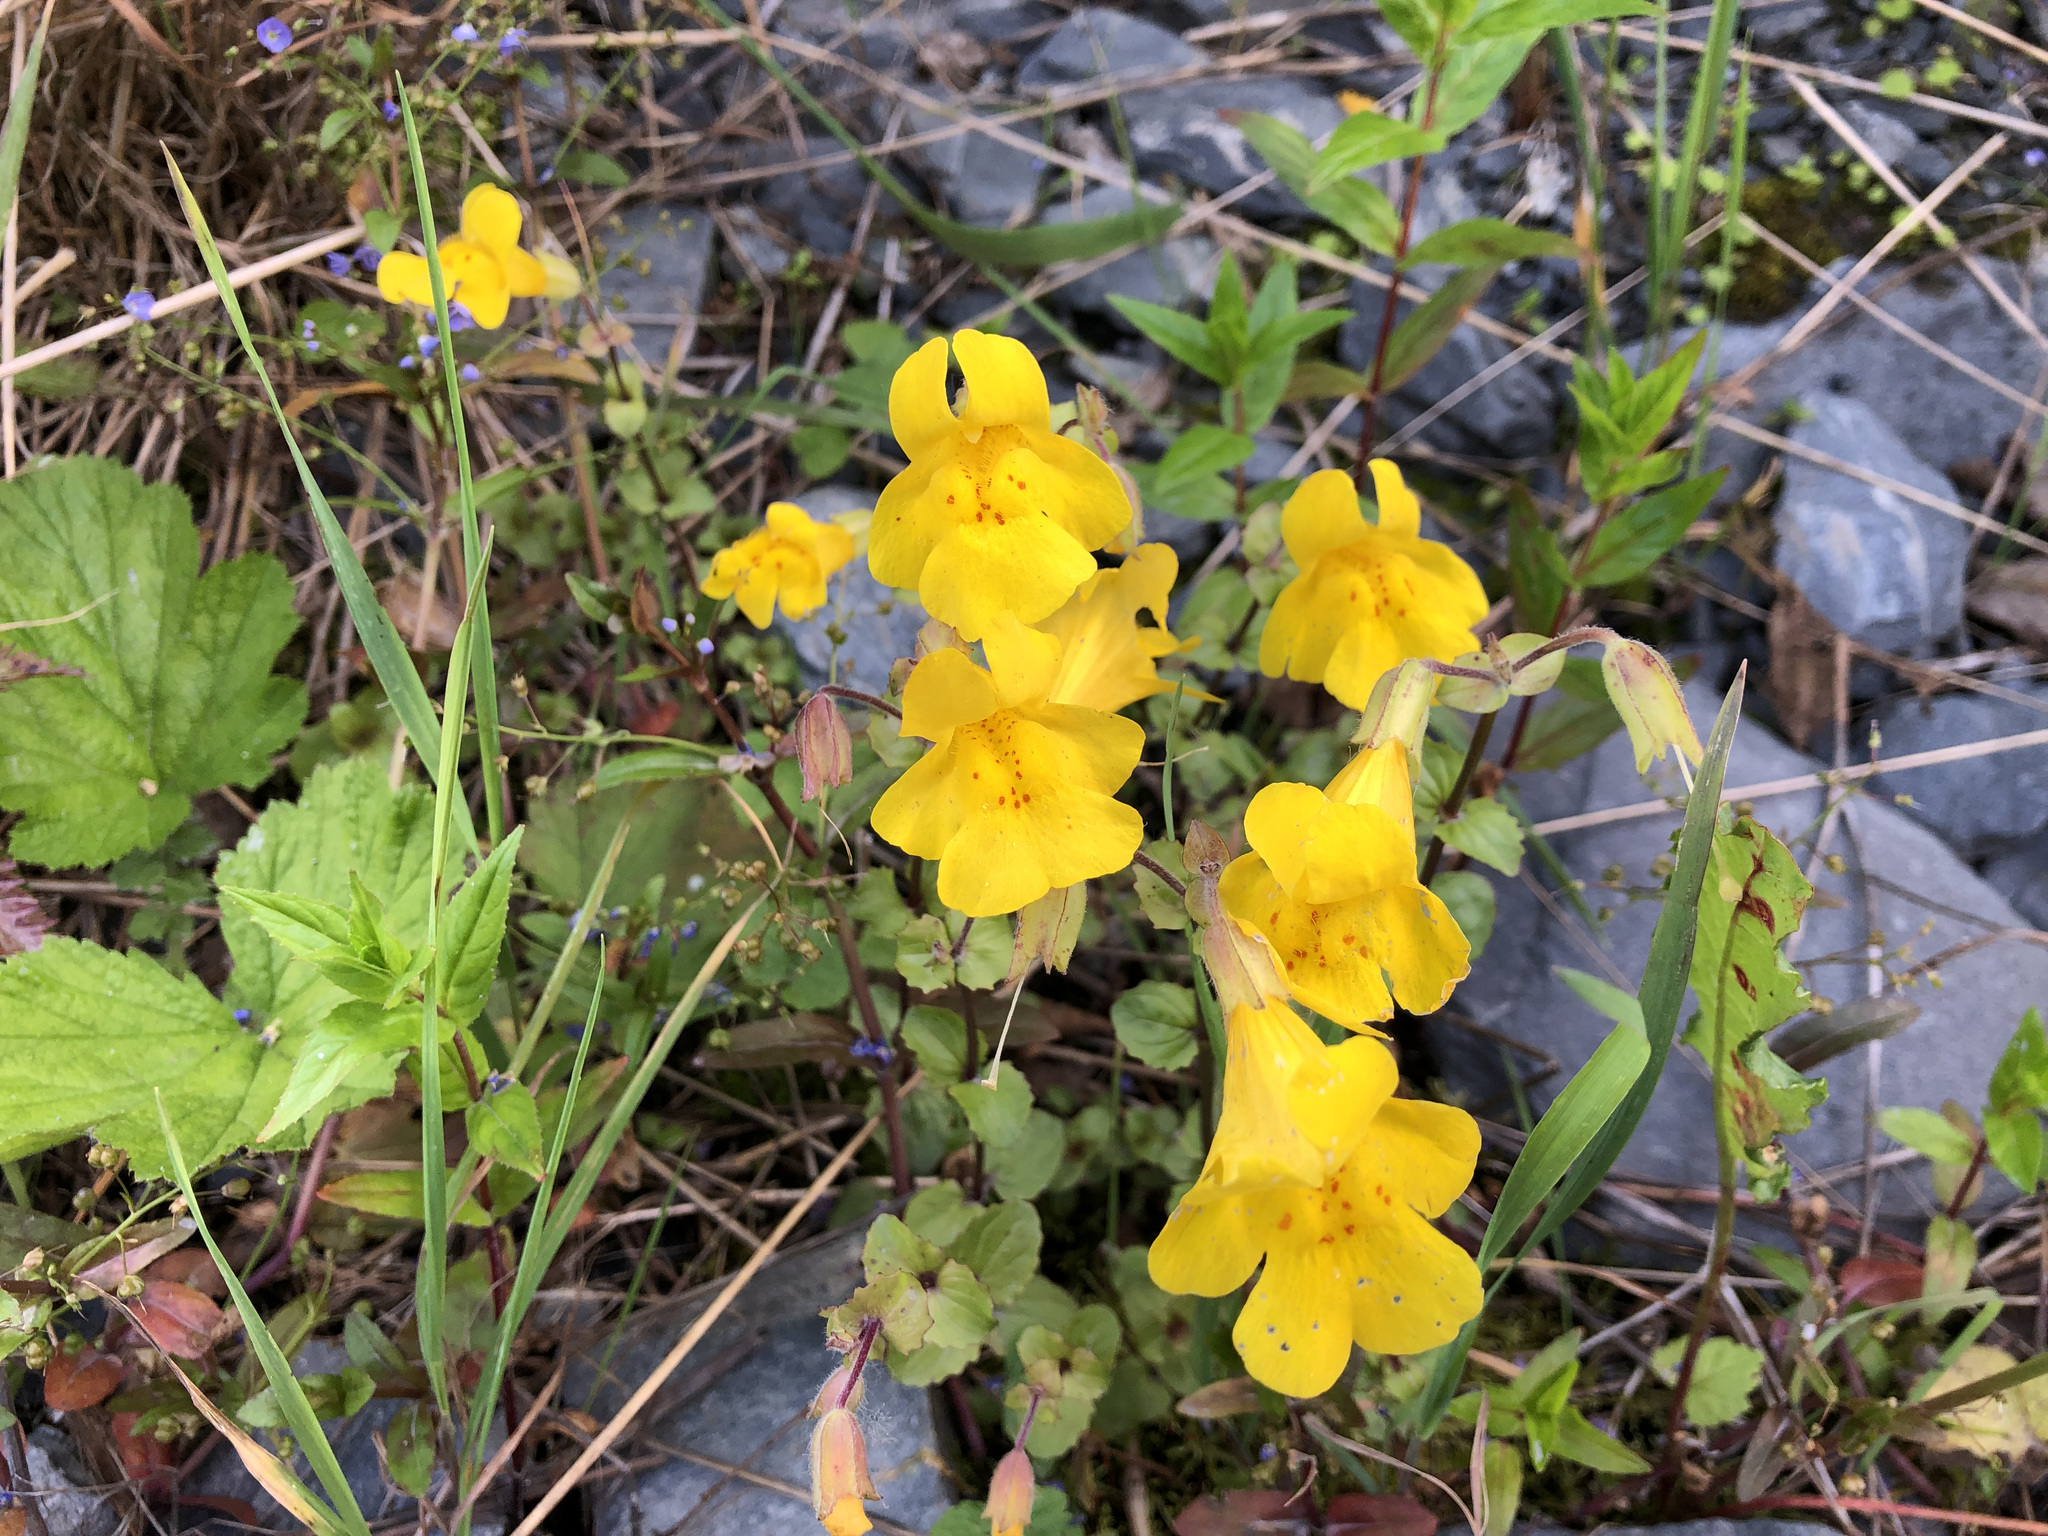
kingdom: Plantae
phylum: Tracheophyta
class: Magnoliopsida
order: Lamiales
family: Phrymaceae
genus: Erythranthe
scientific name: Erythranthe guttata
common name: Monkeyflower
